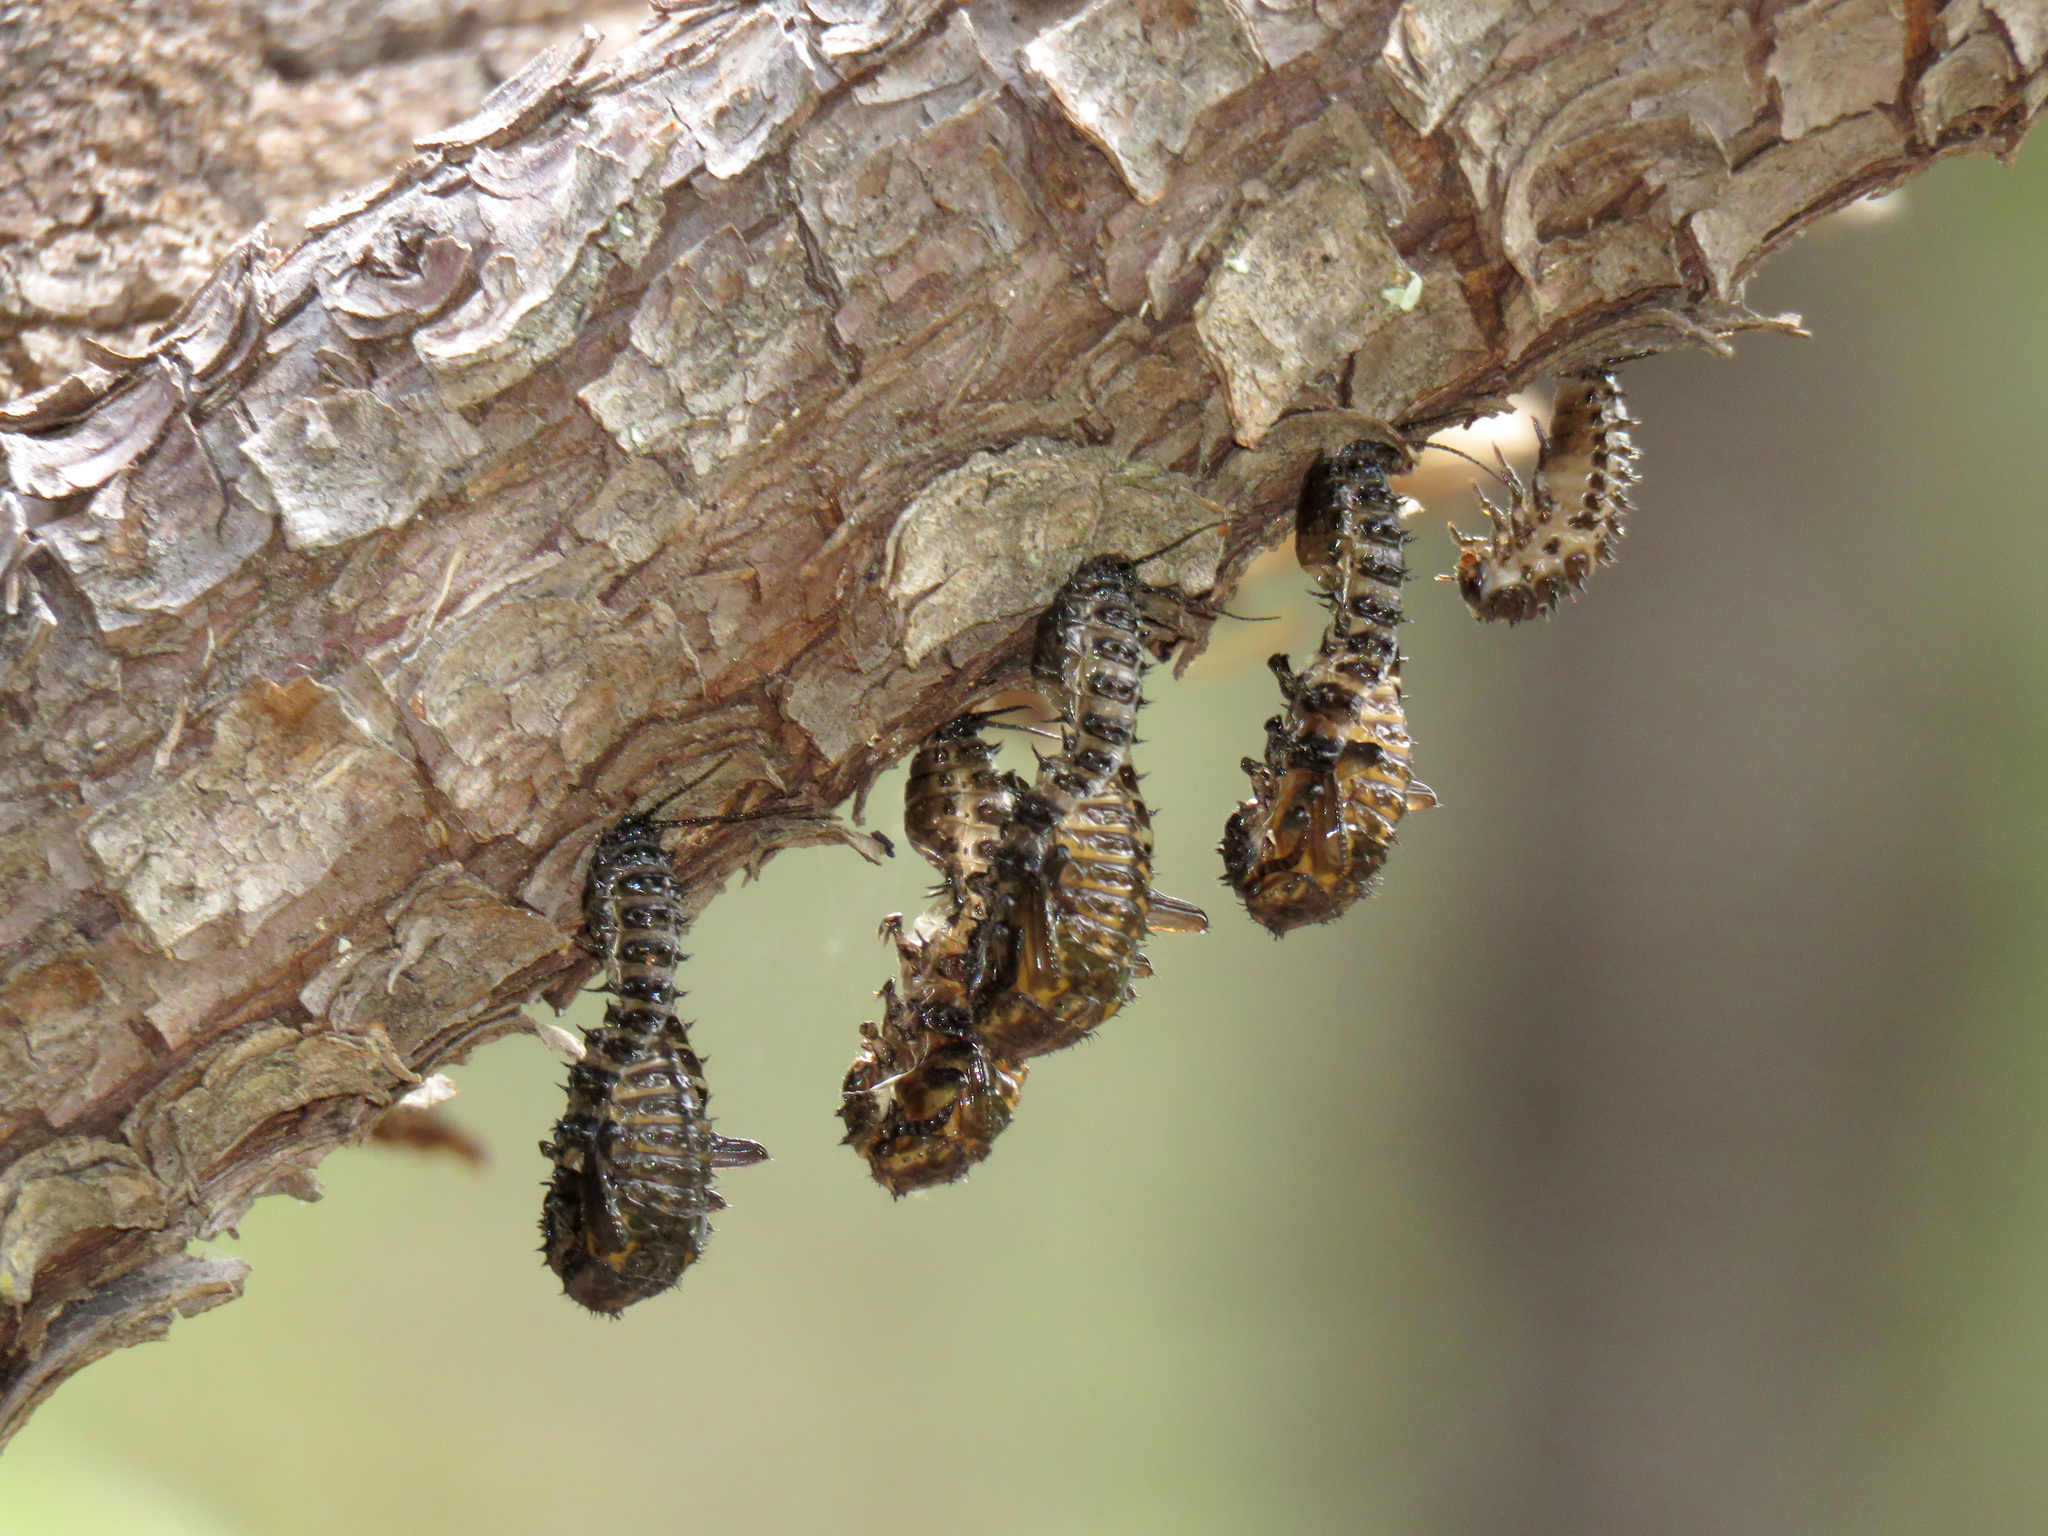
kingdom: Animalia
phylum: Arthropoda
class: Insecta
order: Coleoptera
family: Erotylidae
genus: Gibbifer
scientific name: Gibbifer californicus
